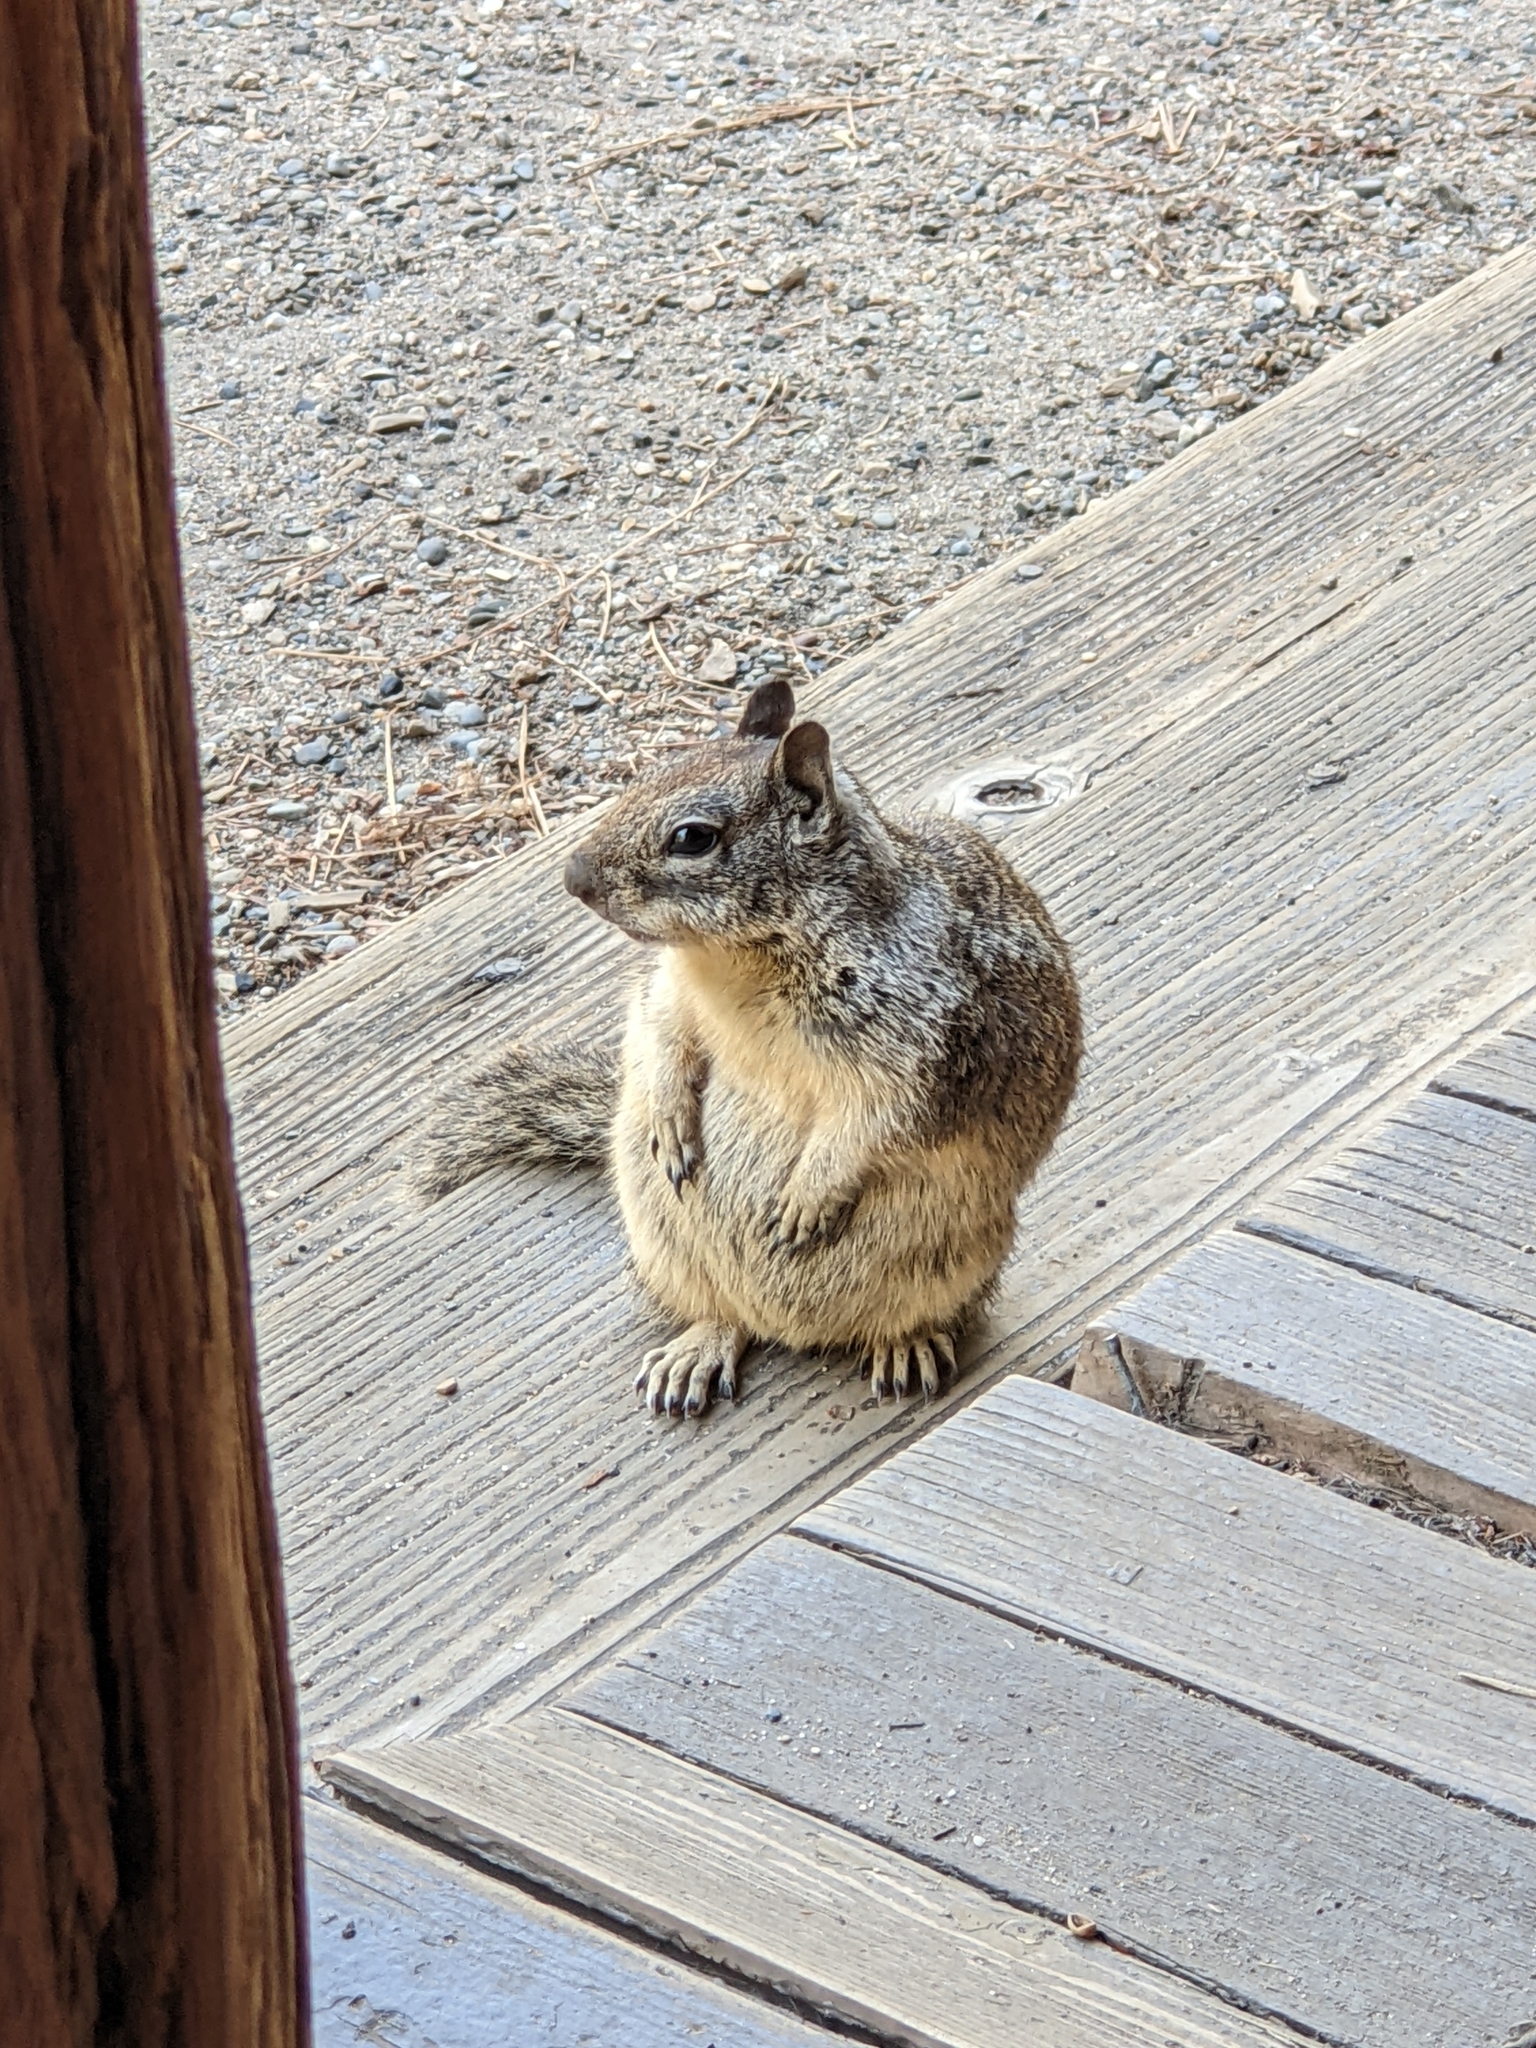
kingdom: Animalia
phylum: Chordata
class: Mammalia
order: Rodentia
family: Sciuridae
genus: Otospermophilus
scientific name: Otospermophilus beecheyi
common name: California ground squirrel
